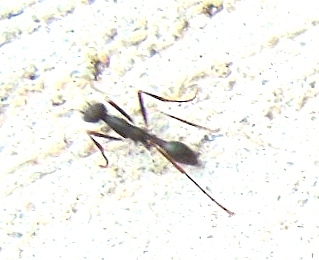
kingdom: Animalia
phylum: Arthropoda
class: Insecta
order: Hymenoptera
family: Formicidae
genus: Eciton
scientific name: Eciton burchellii
